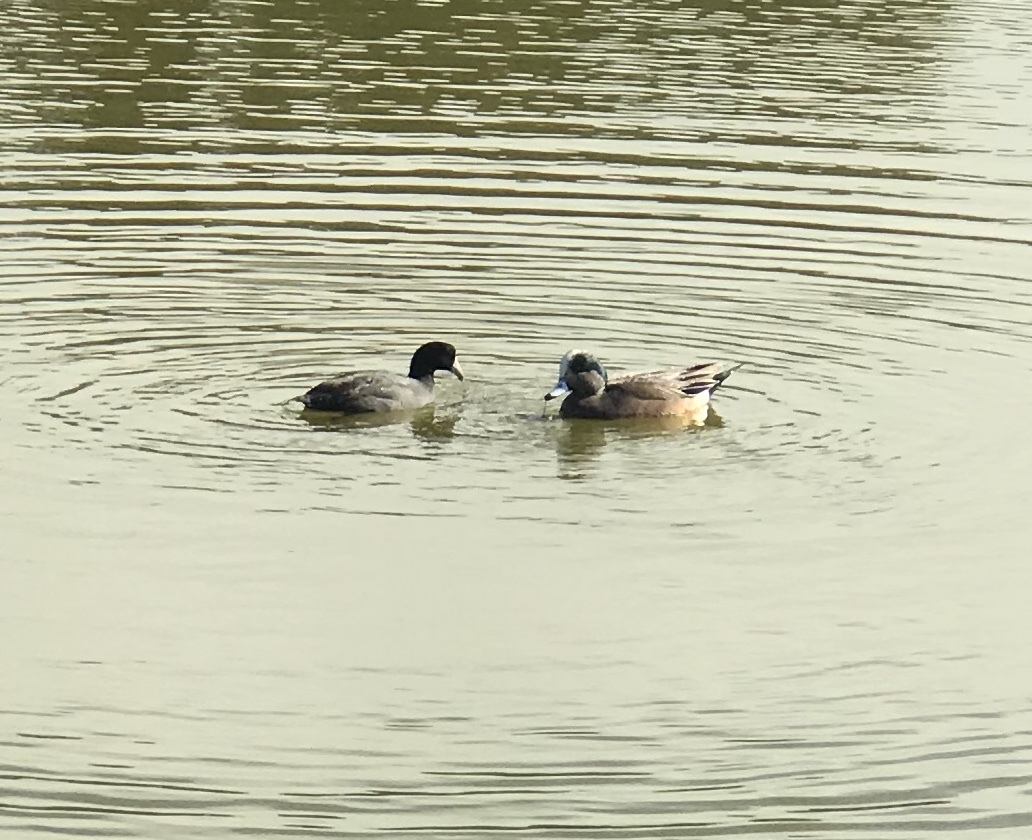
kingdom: Animalia
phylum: Chordata
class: Aves
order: Anseriformes
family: Anatidae
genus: Mareca
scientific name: Mareca americana
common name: American wigeon
